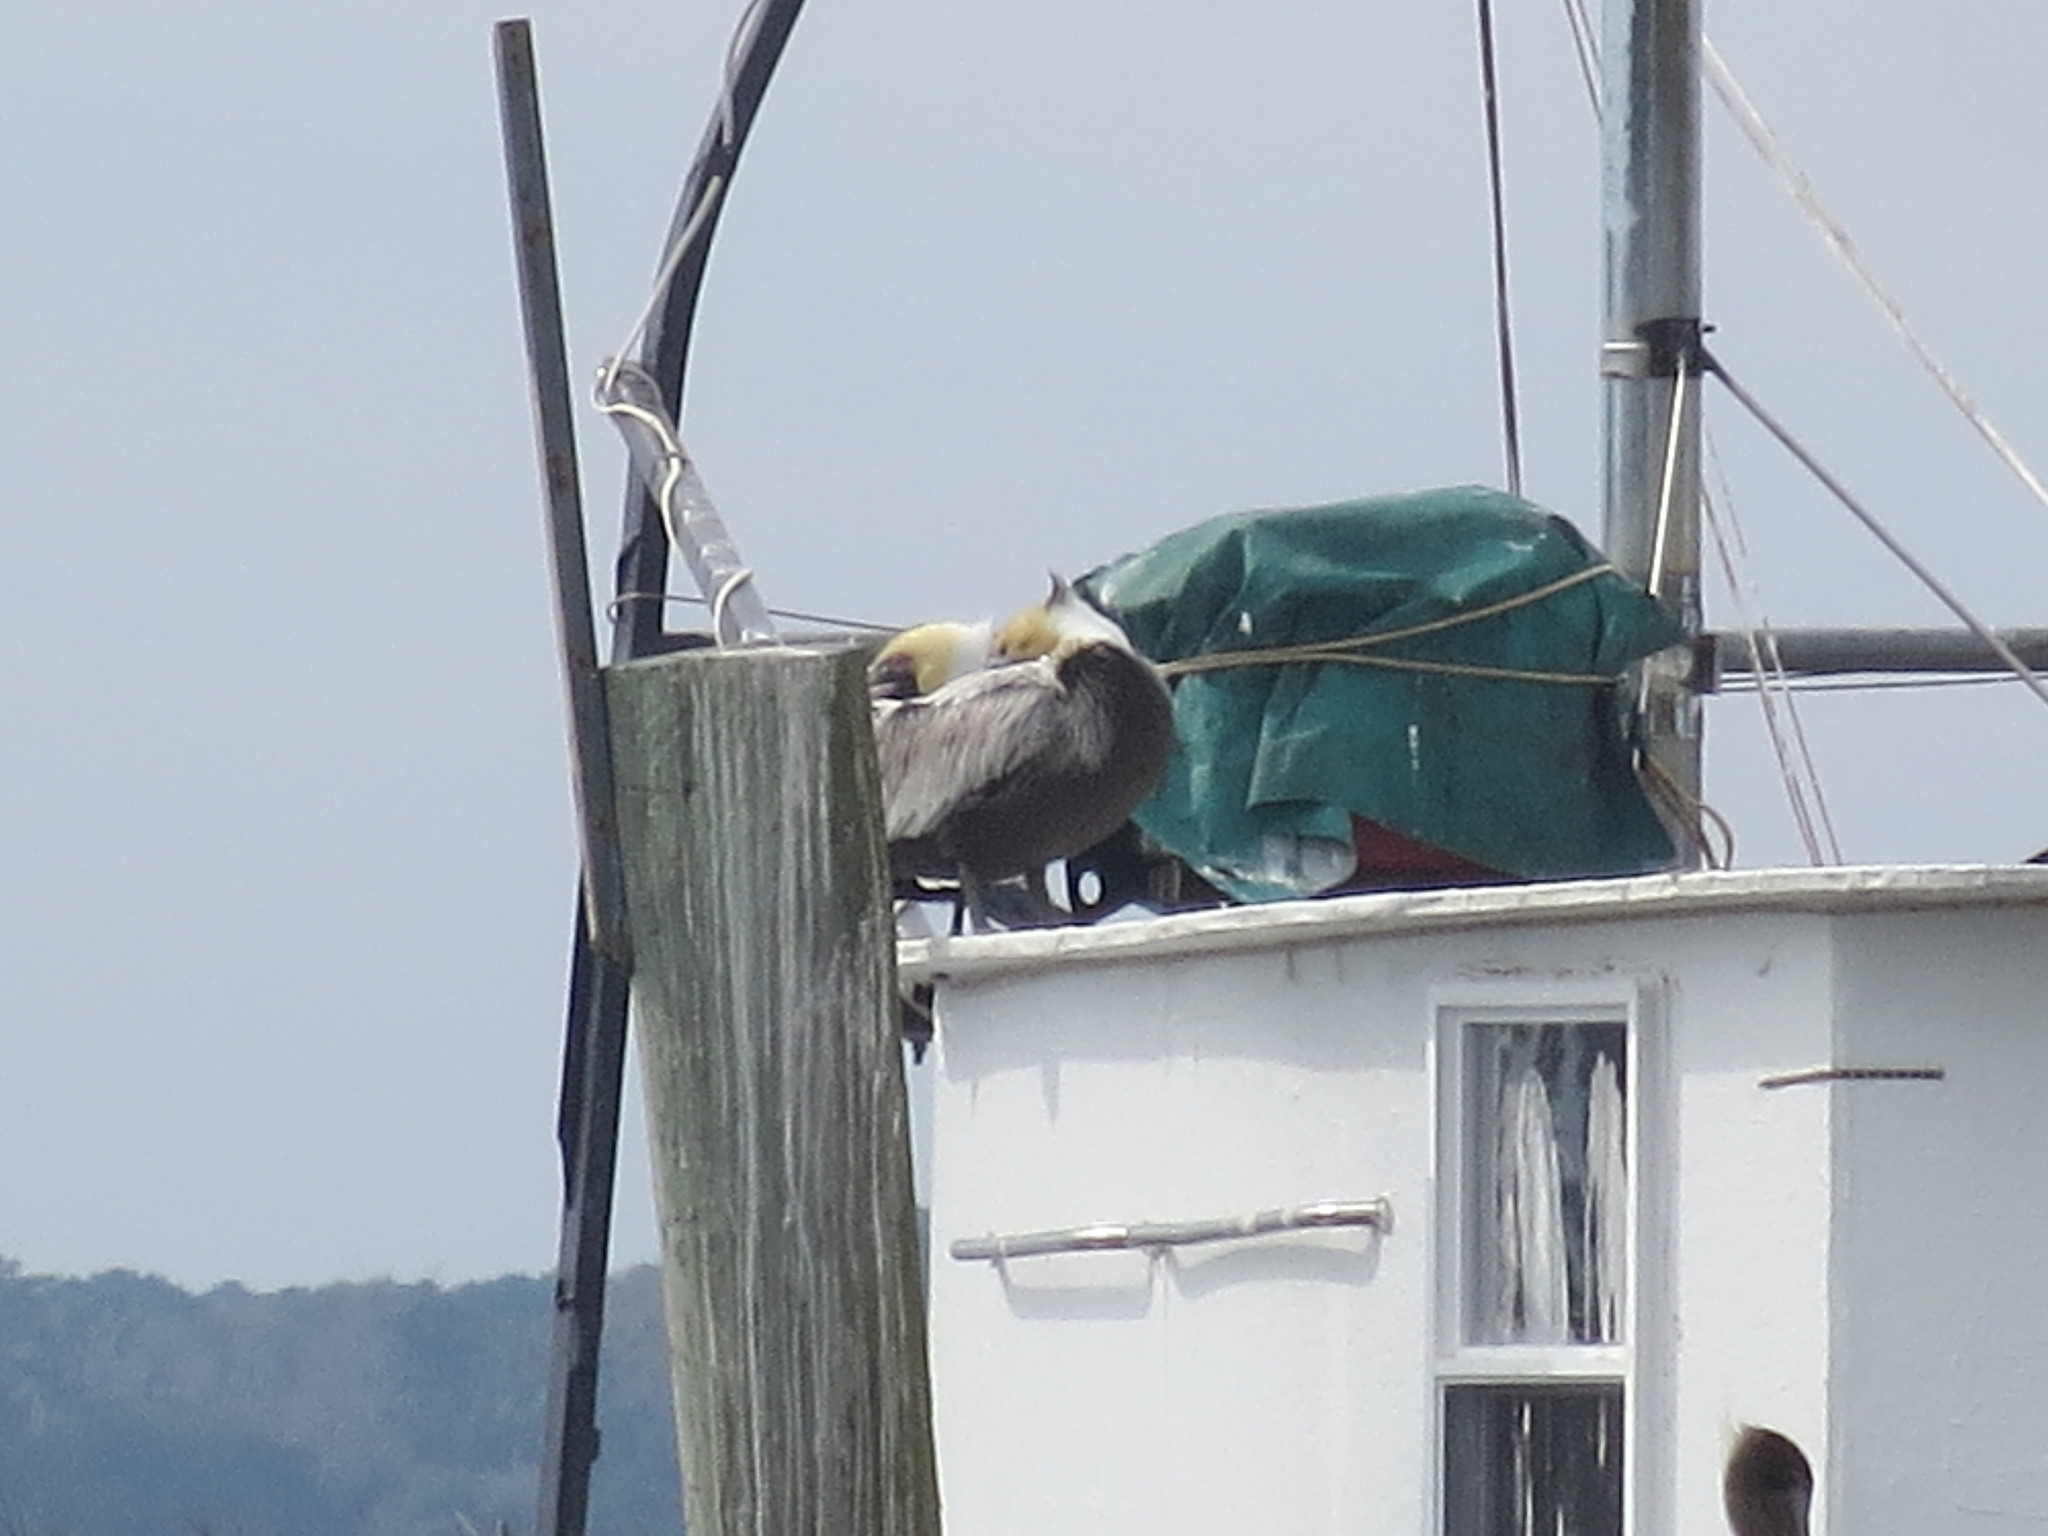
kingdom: Animalia
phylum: Chordata
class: Aves
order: Pelecaniformes
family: Pelecanidae
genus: Pelecanus
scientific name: Pelecanus occidentalis
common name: Brown pelican
